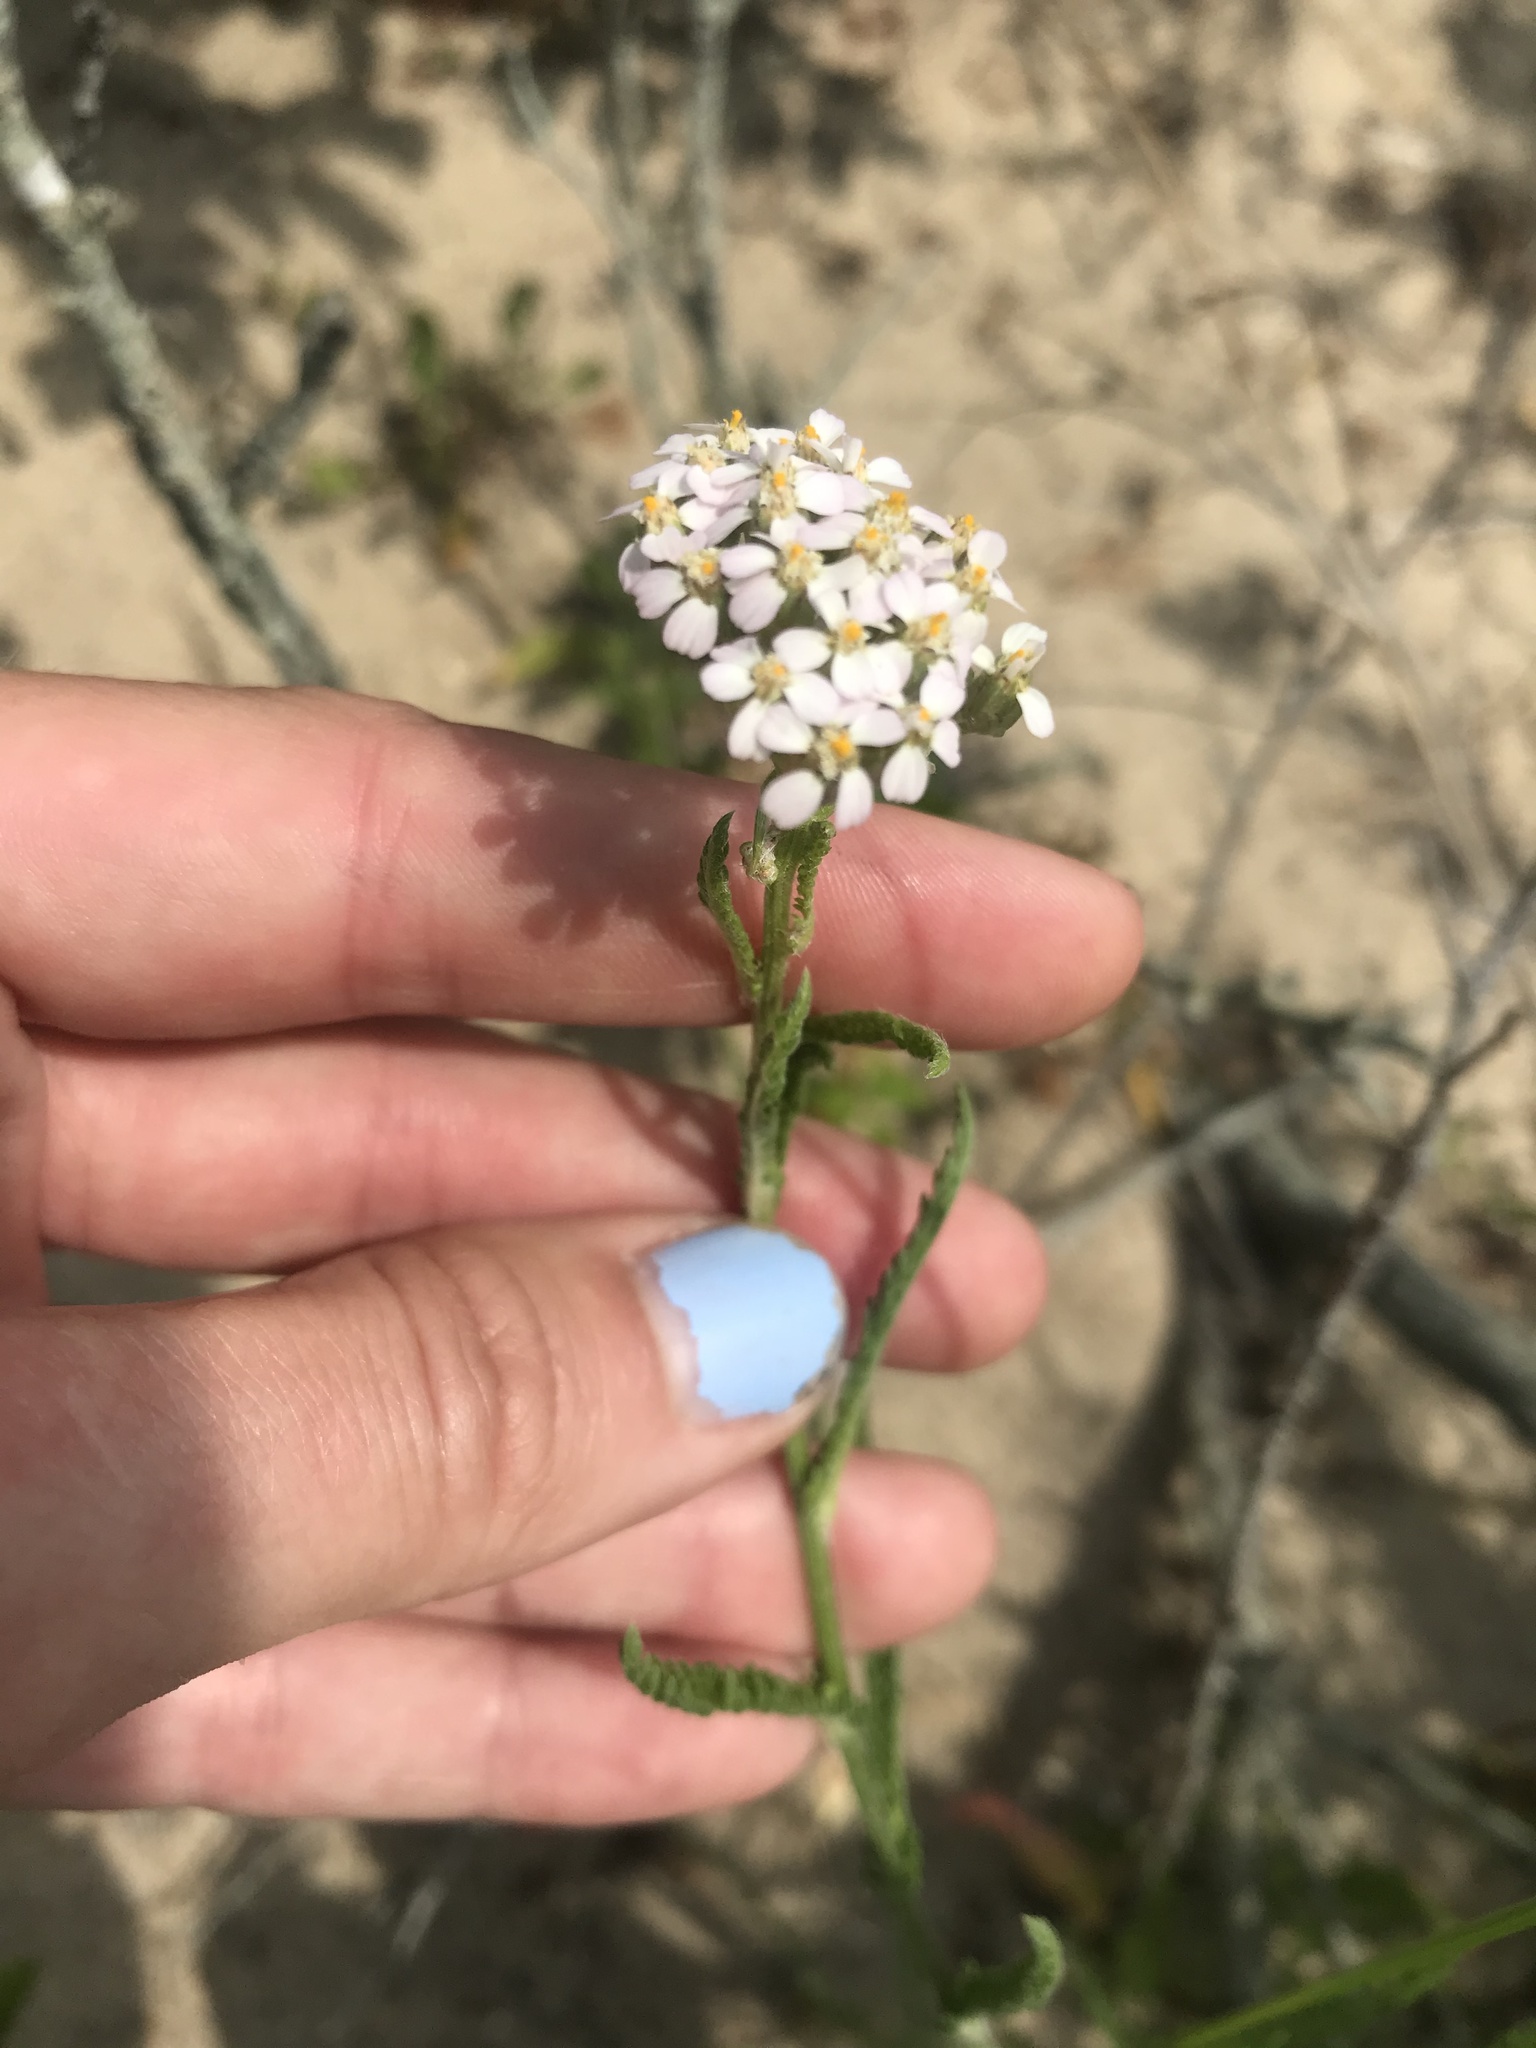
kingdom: Plantae
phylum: Tracheophyta
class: Magnoliopsida
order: Asterales
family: Asteraceae
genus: Achillea
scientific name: Achillea millefolium
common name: Yarrow
